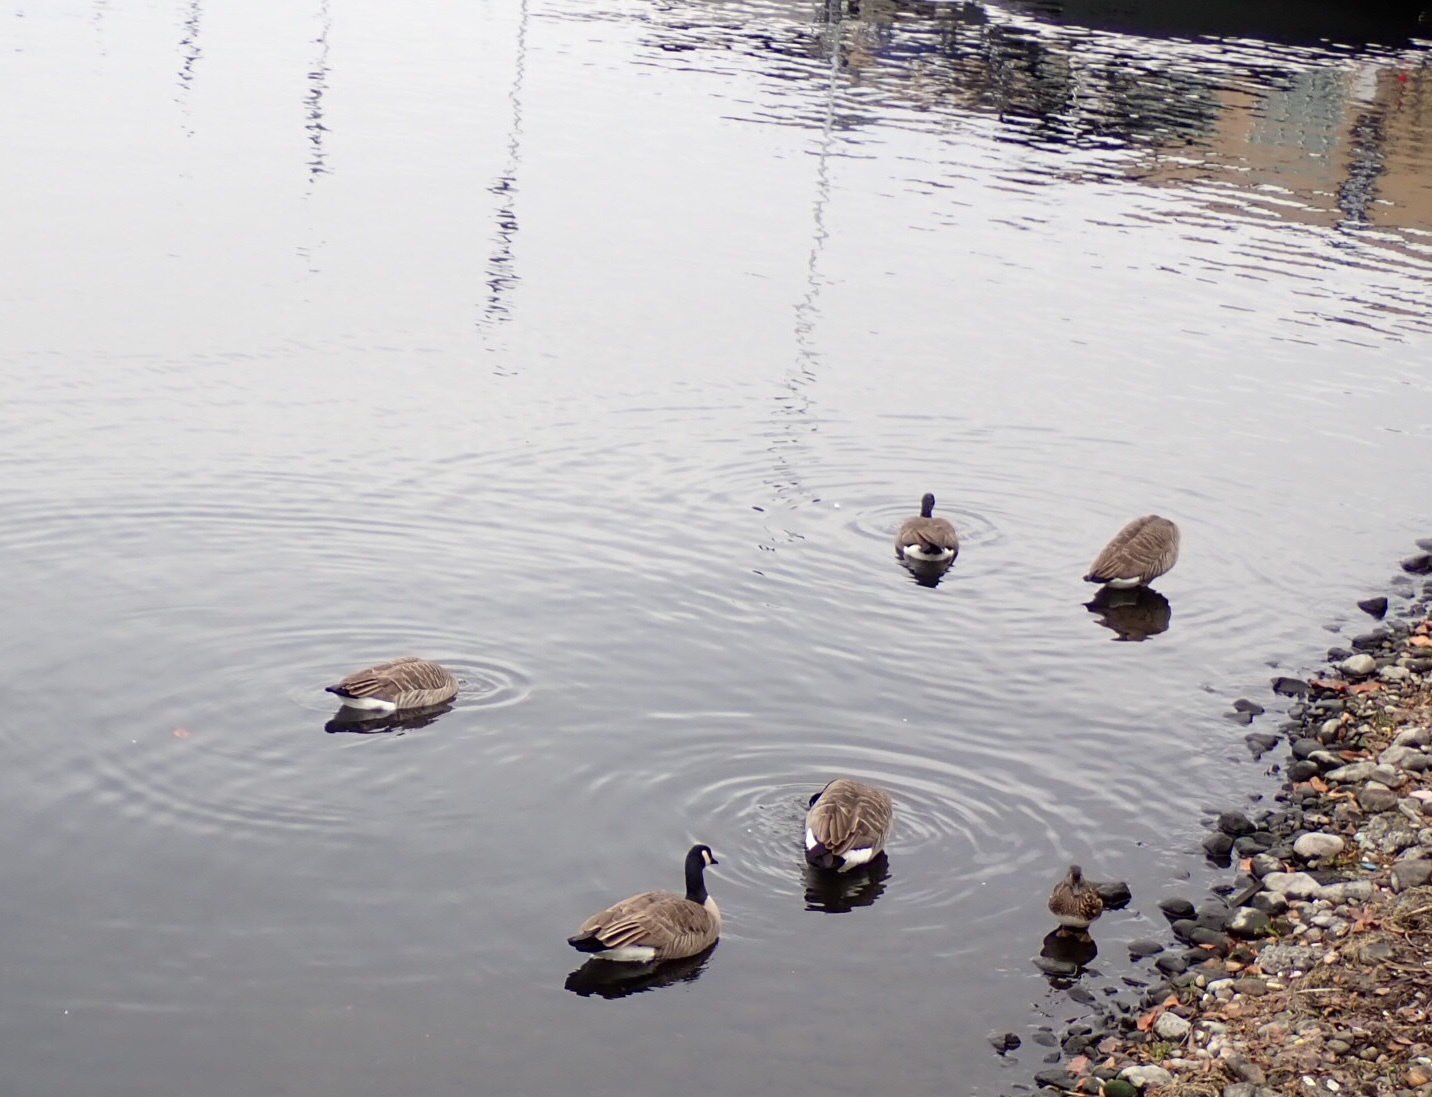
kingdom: Animalia
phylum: Chordata
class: Aves
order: Anseriformes
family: Anatidae
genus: Branta
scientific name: Branta canadensis
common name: Canada goose
